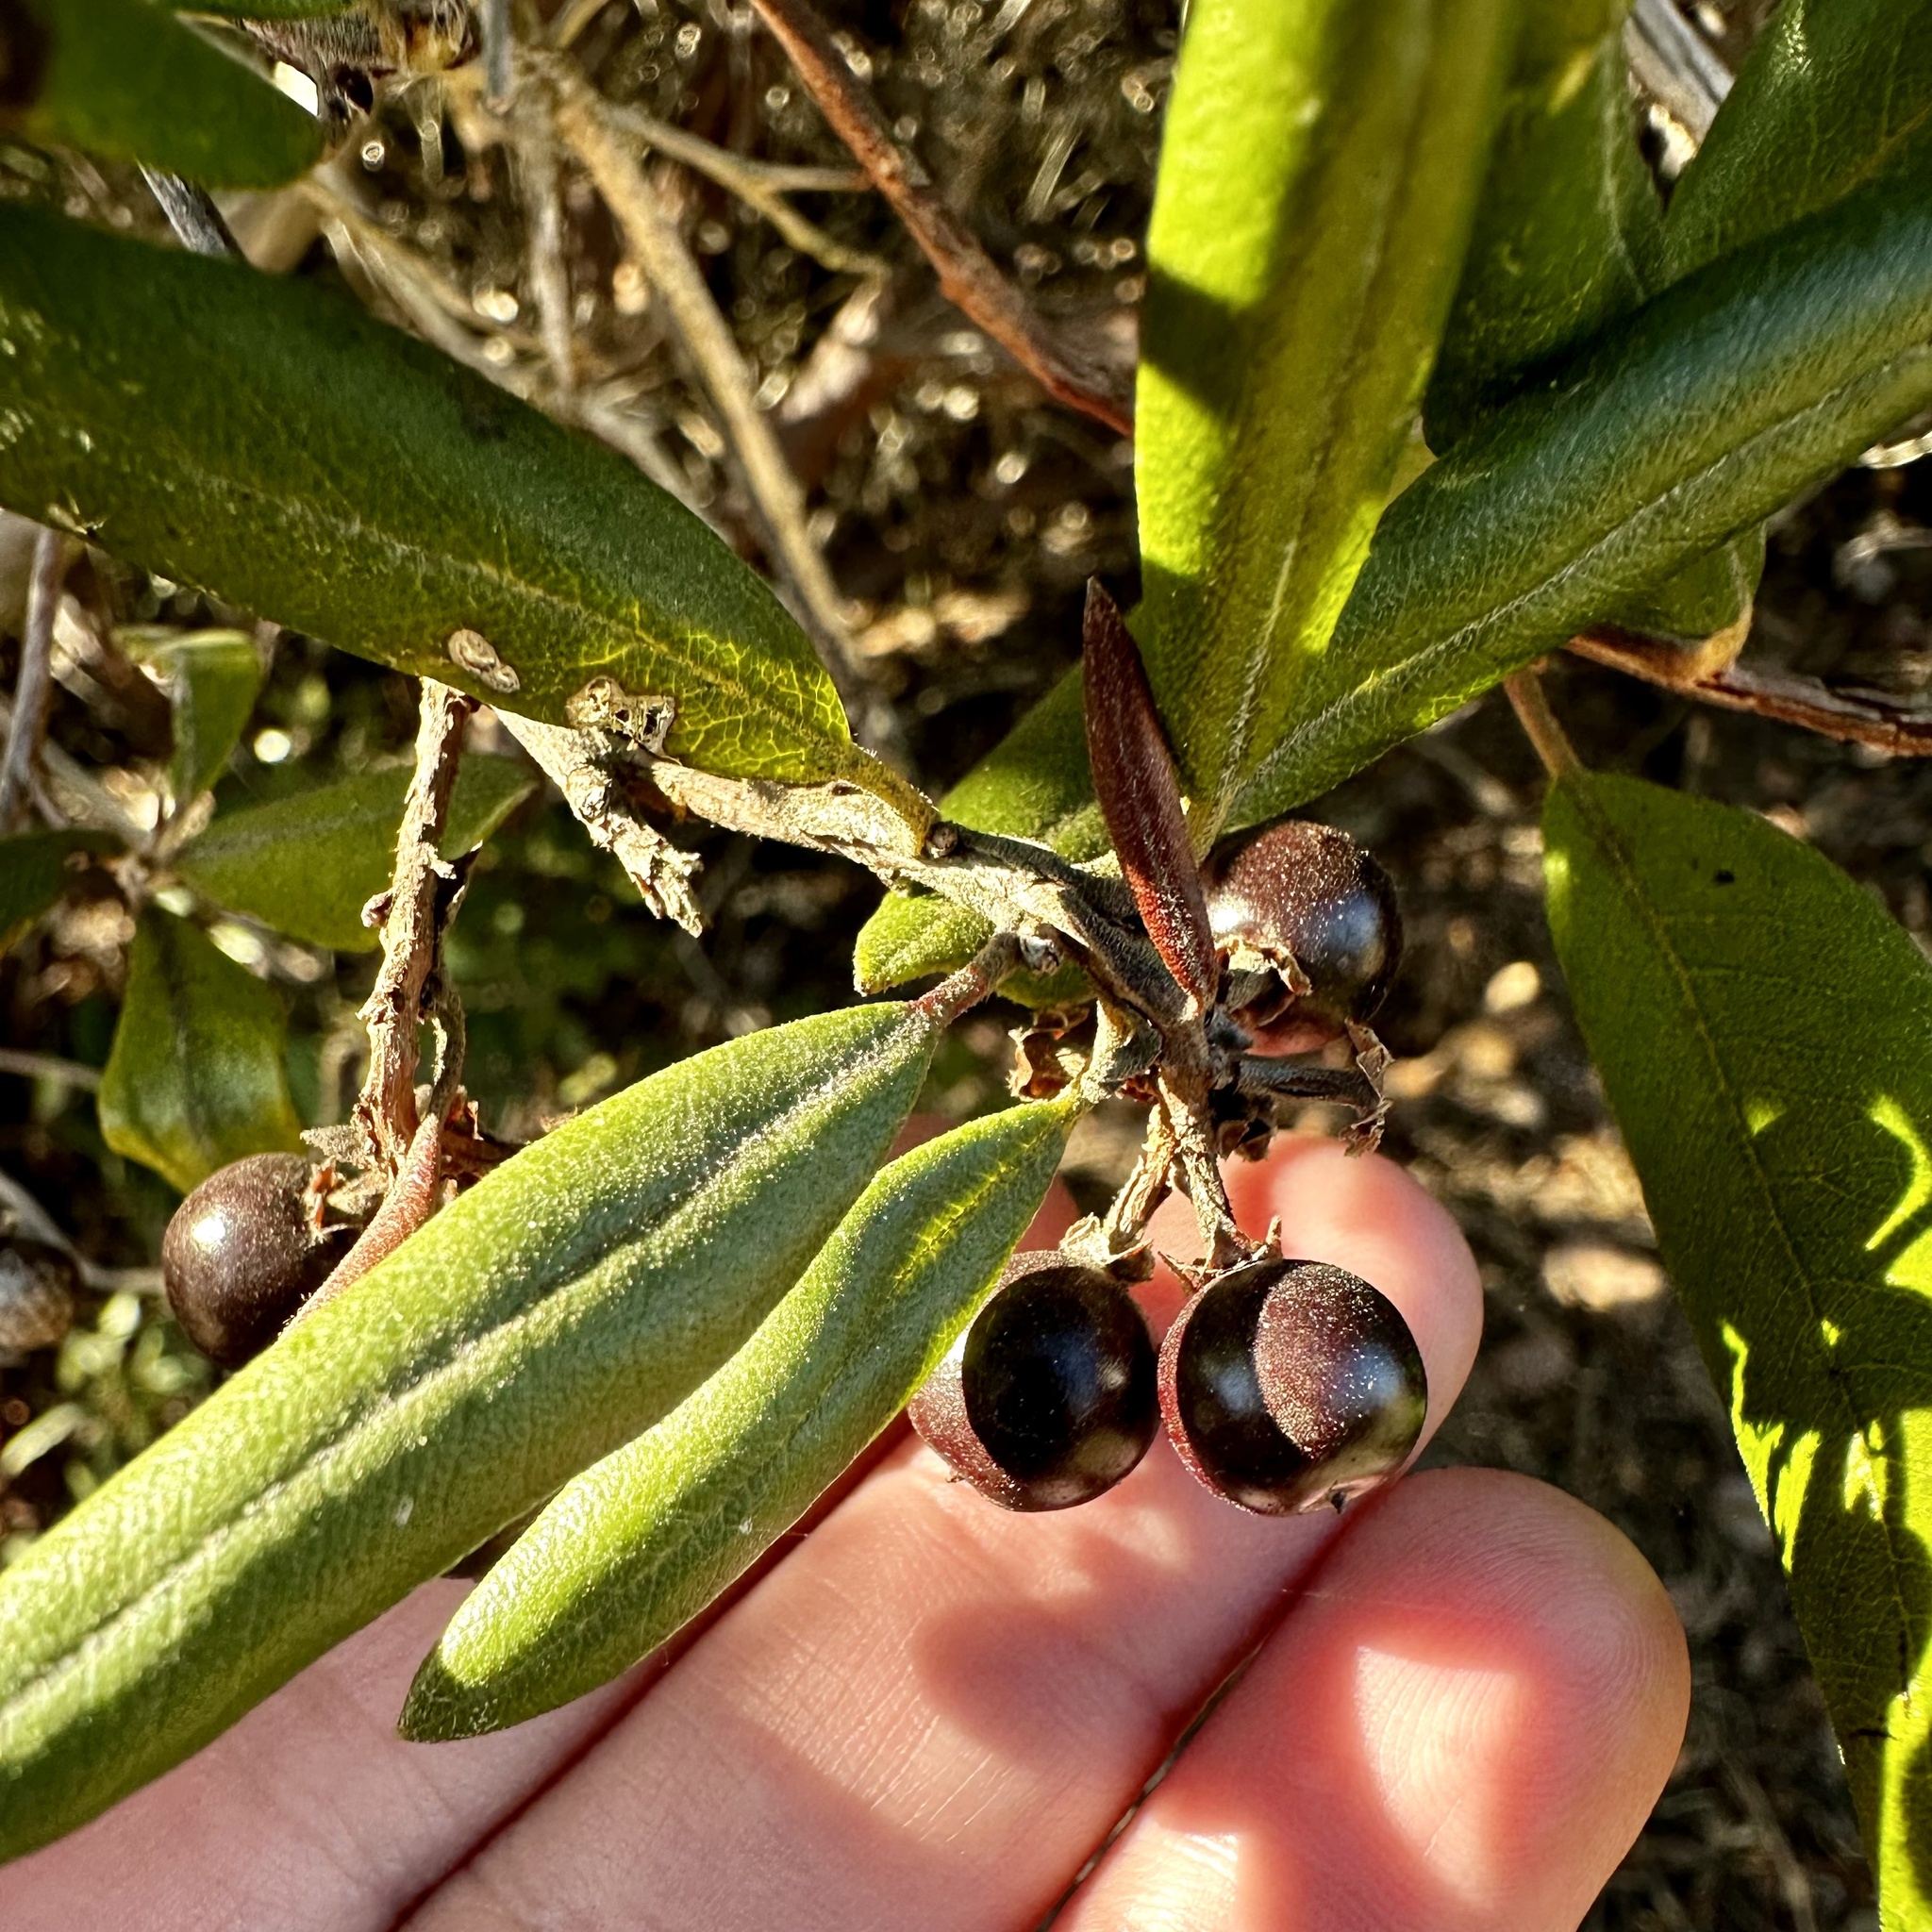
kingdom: Plantae
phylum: Tracheophyta
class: Magnoliopsida
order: Ericales
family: Ericaceae
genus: Arctostaphylos
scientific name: Arctostaphylos bicolor
